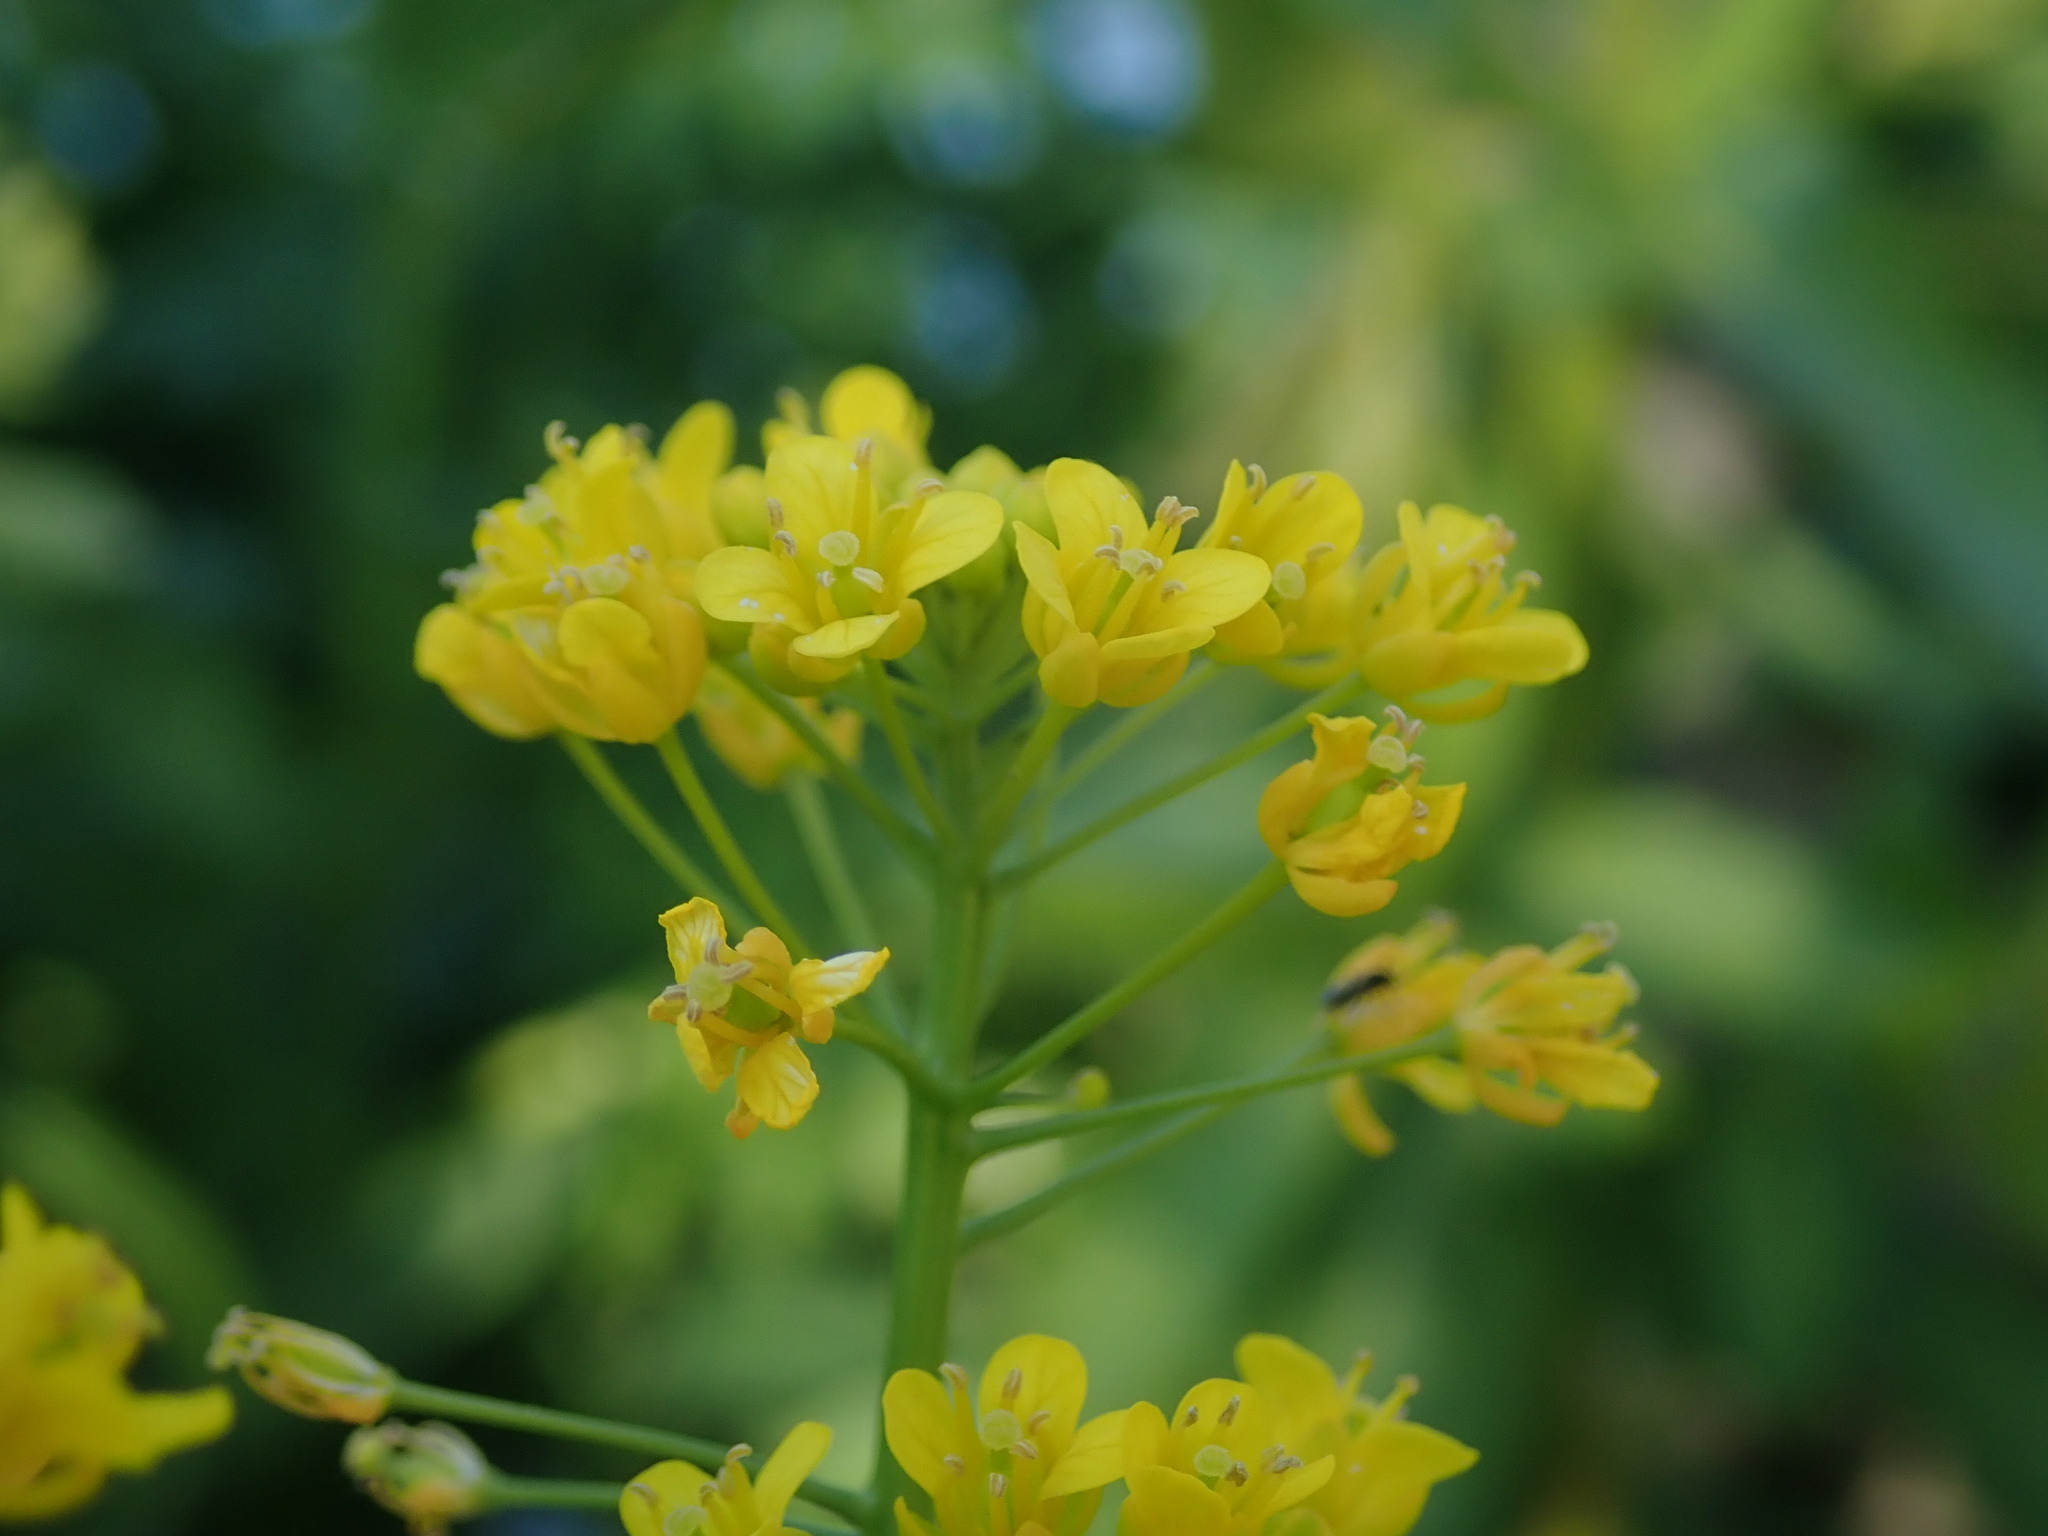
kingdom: Plantae
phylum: Tracheophyta
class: Magnoliopsida
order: Brassicales
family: Brassicaceae
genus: Rorippa
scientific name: Rorippa amphibia
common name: Great yellow-cress
